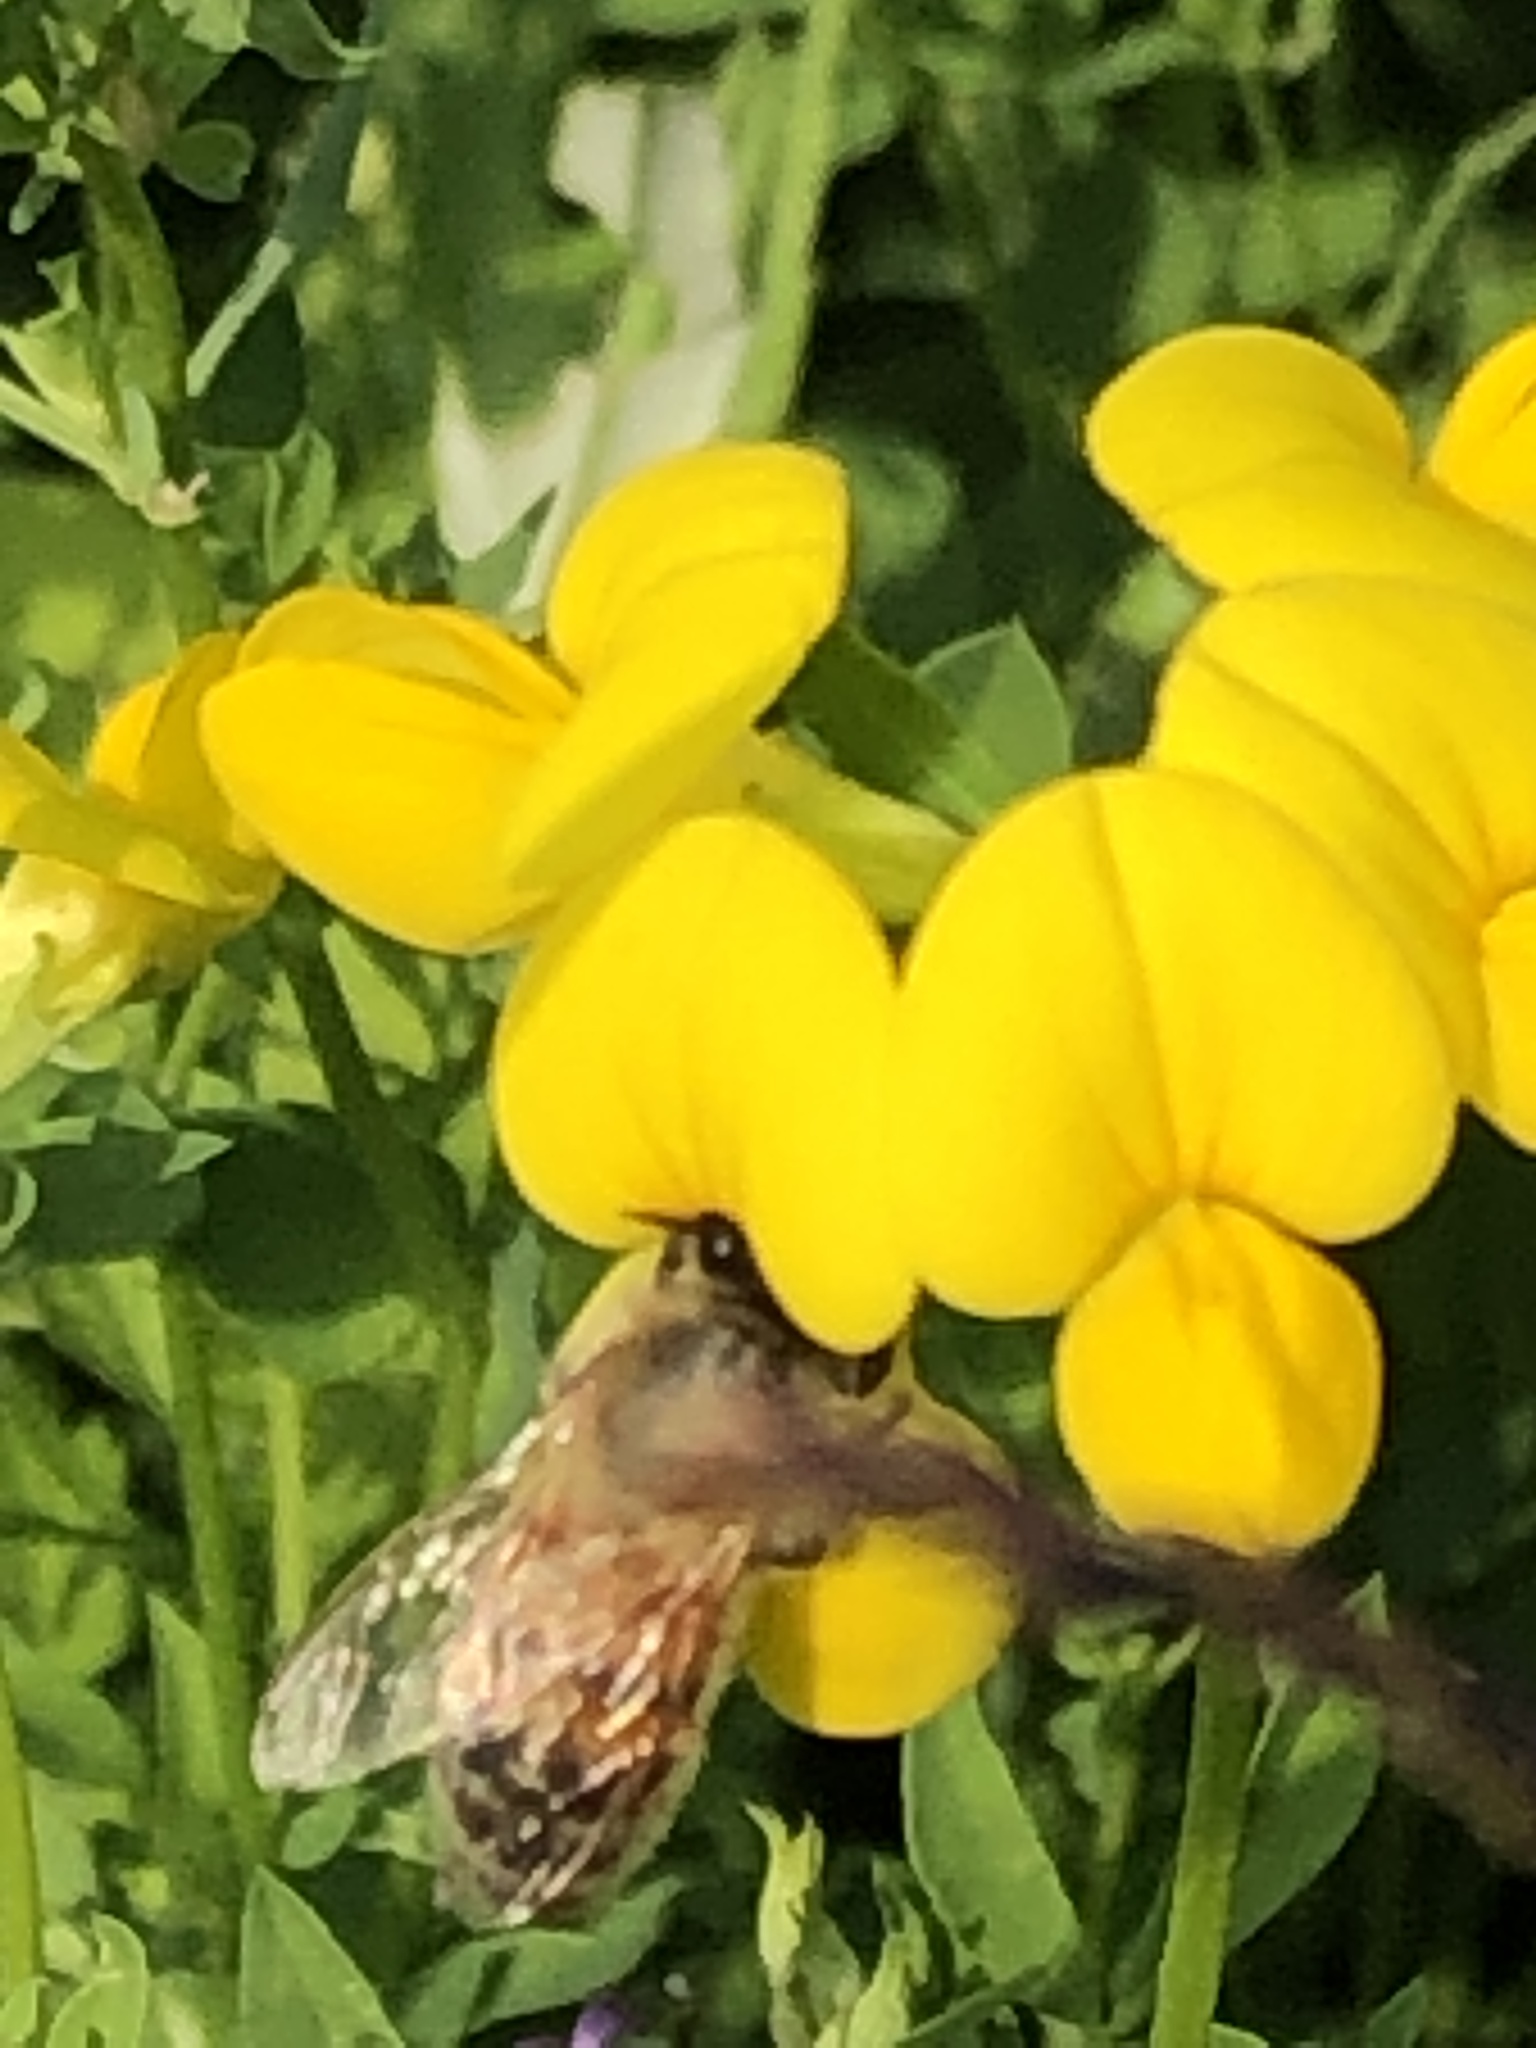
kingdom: Animalia
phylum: Arthropoda
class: Insecta
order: Hymenoptera
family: Apidae
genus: Apis
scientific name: Apis mellifera
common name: Honey bee
